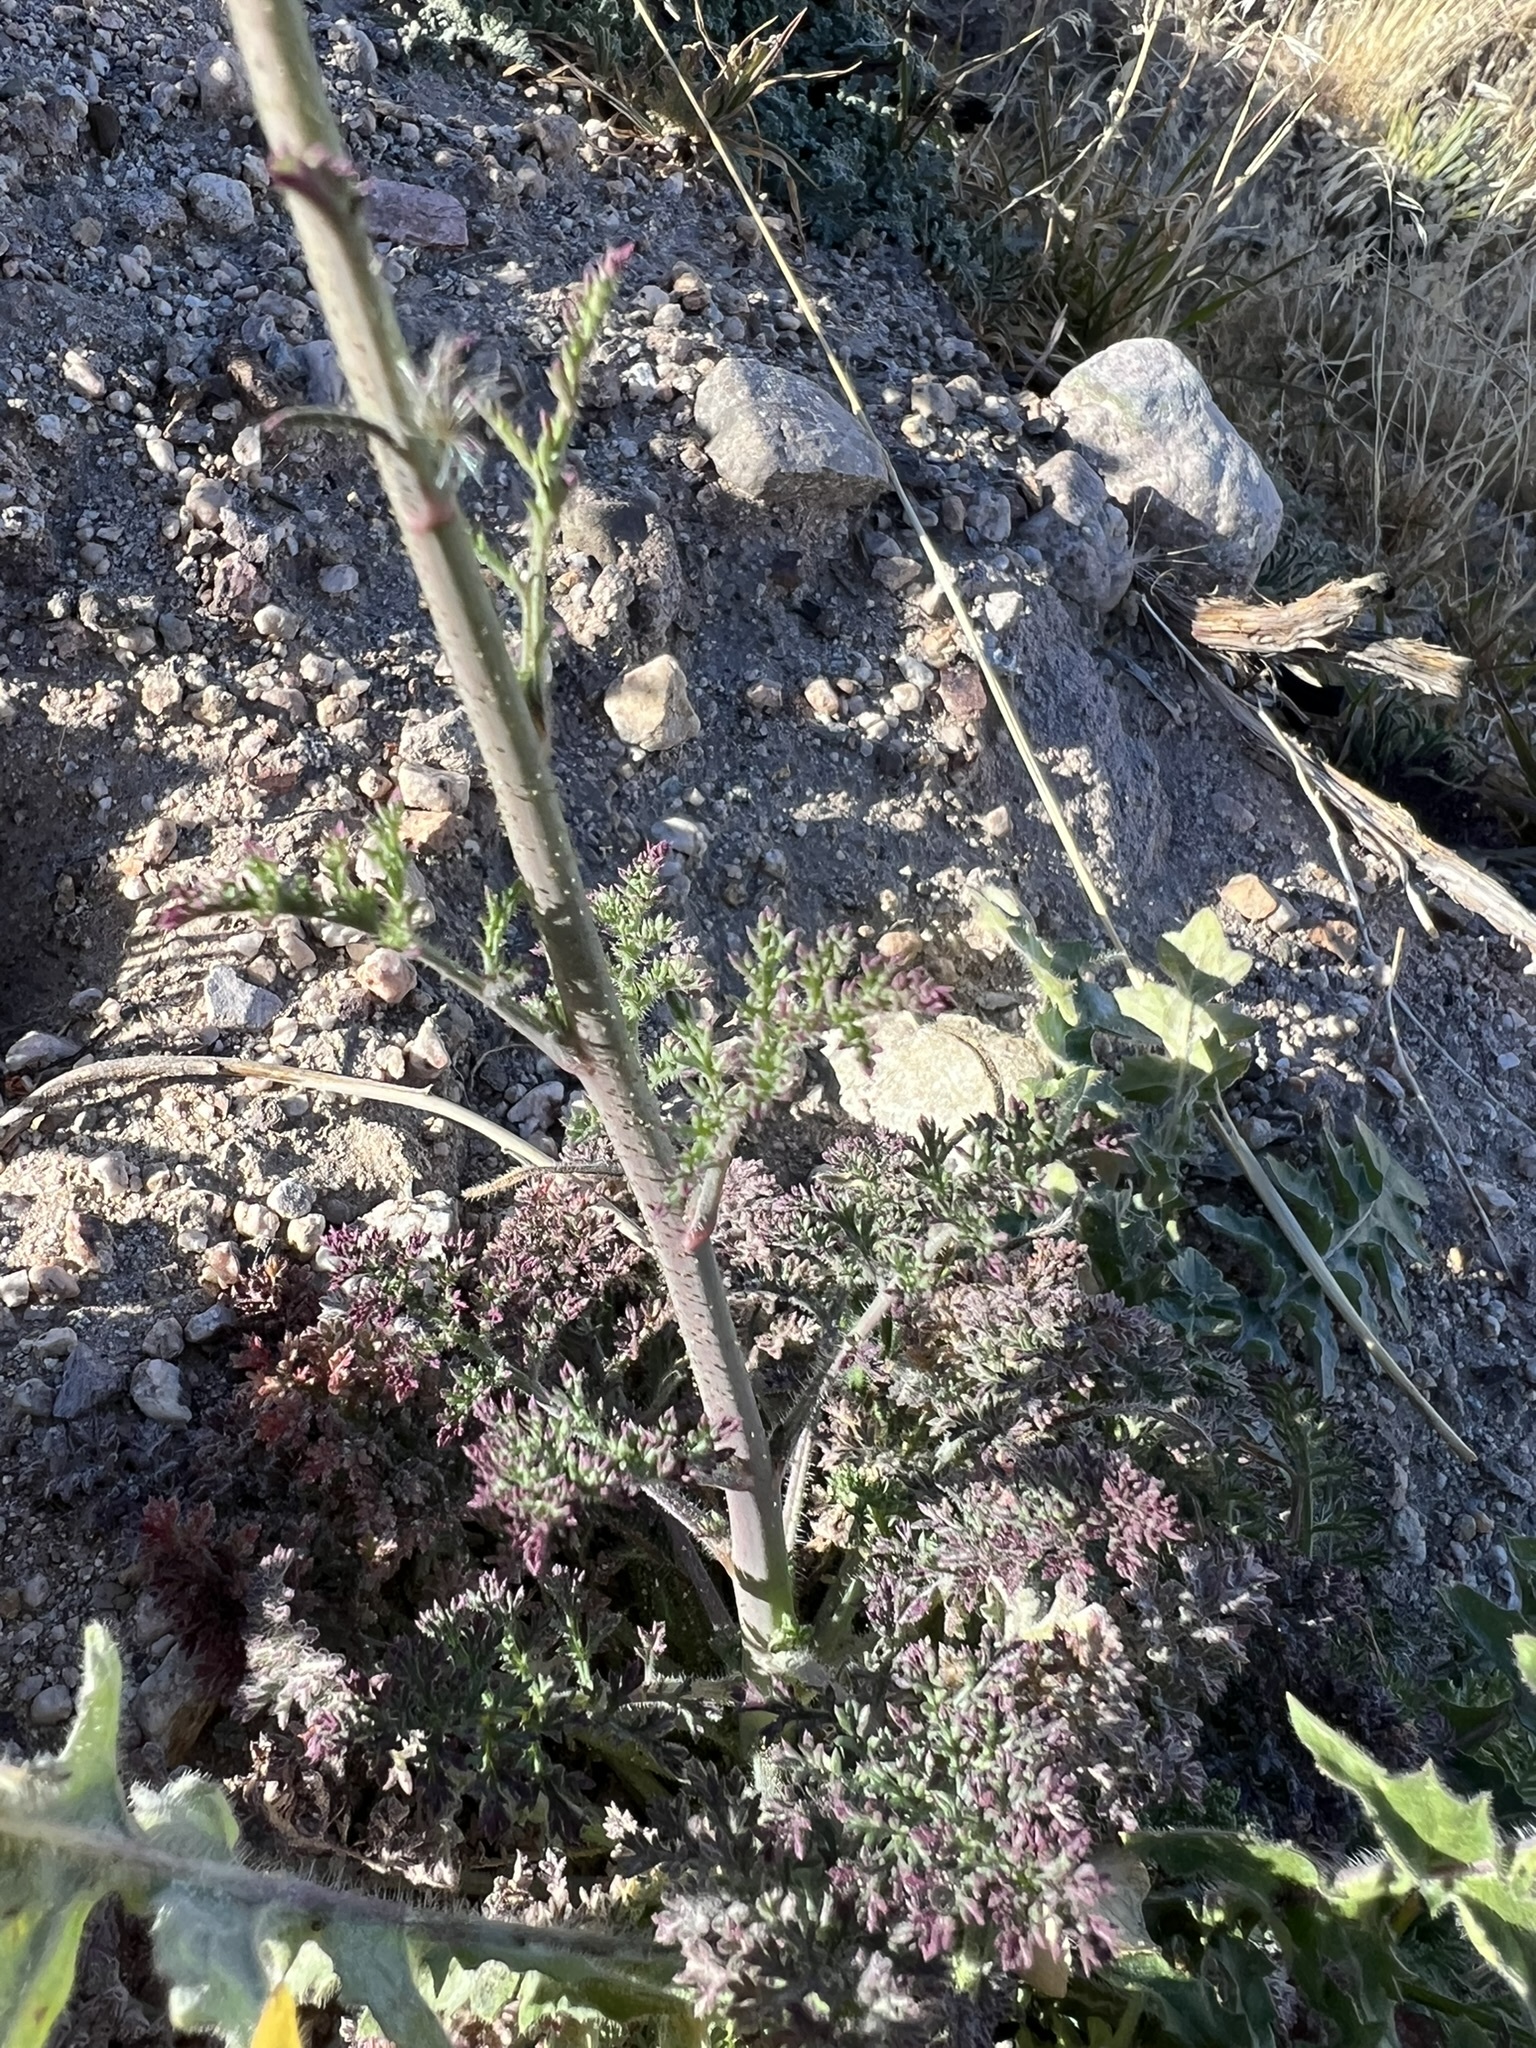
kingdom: Plantae
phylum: Tracheophyta
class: Magnoliopsida
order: Ericales
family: Polemoniaceae
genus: Saltugilia
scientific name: Saltugilia splendens
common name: Grinnell's gilia
